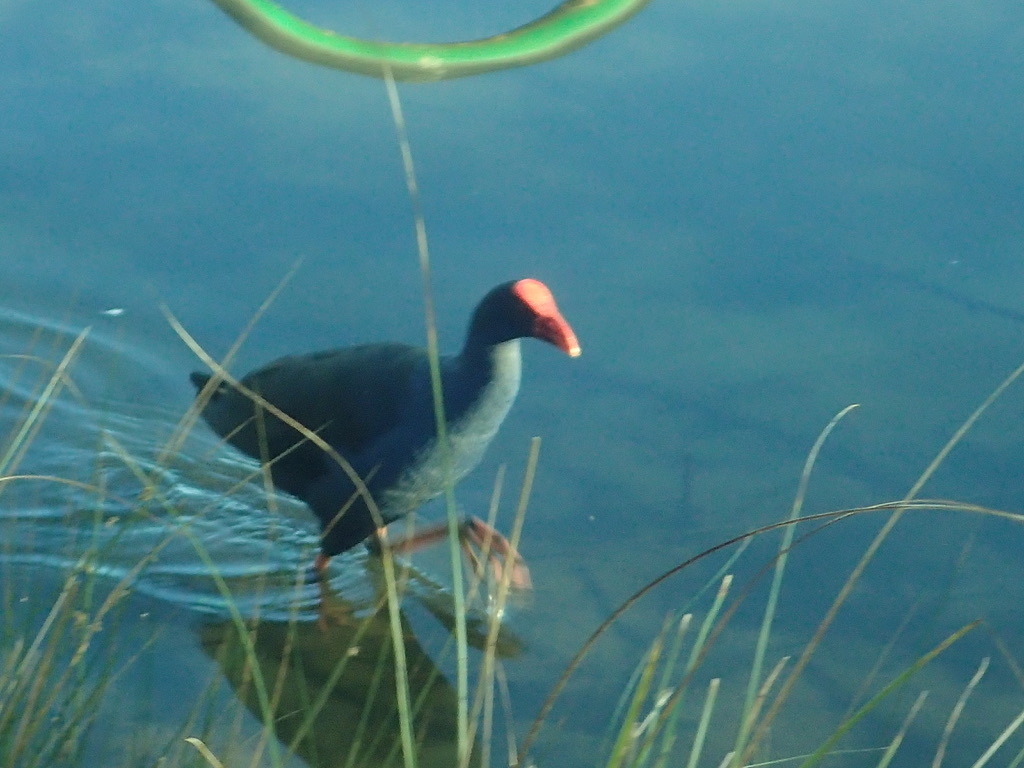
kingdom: Animalia
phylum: Chordata
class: Aves
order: Gruiformes
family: Rallidae
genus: Porphyrio
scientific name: Porphyrio melanotus
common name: Australasian swamphen
